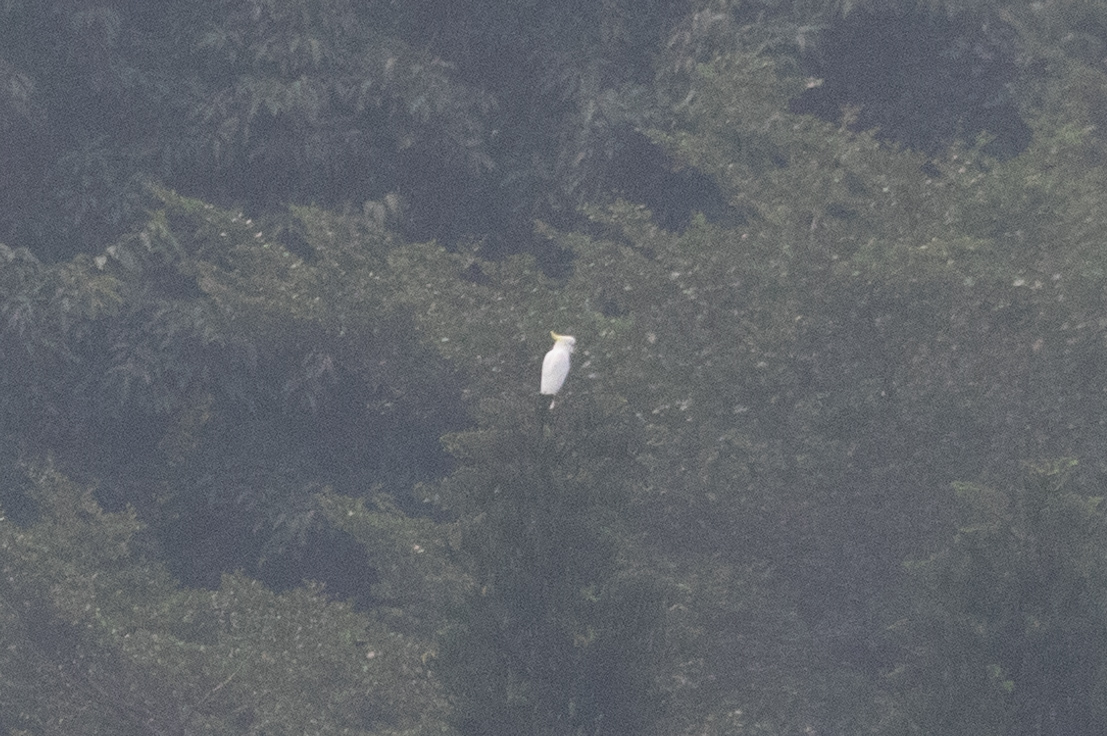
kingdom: Animalia
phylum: Chordata
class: Aves
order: Psittaciformes
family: Psittacidae
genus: Cacatua
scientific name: Cacatua sulphurea
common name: Yellow-crested cockatoo
